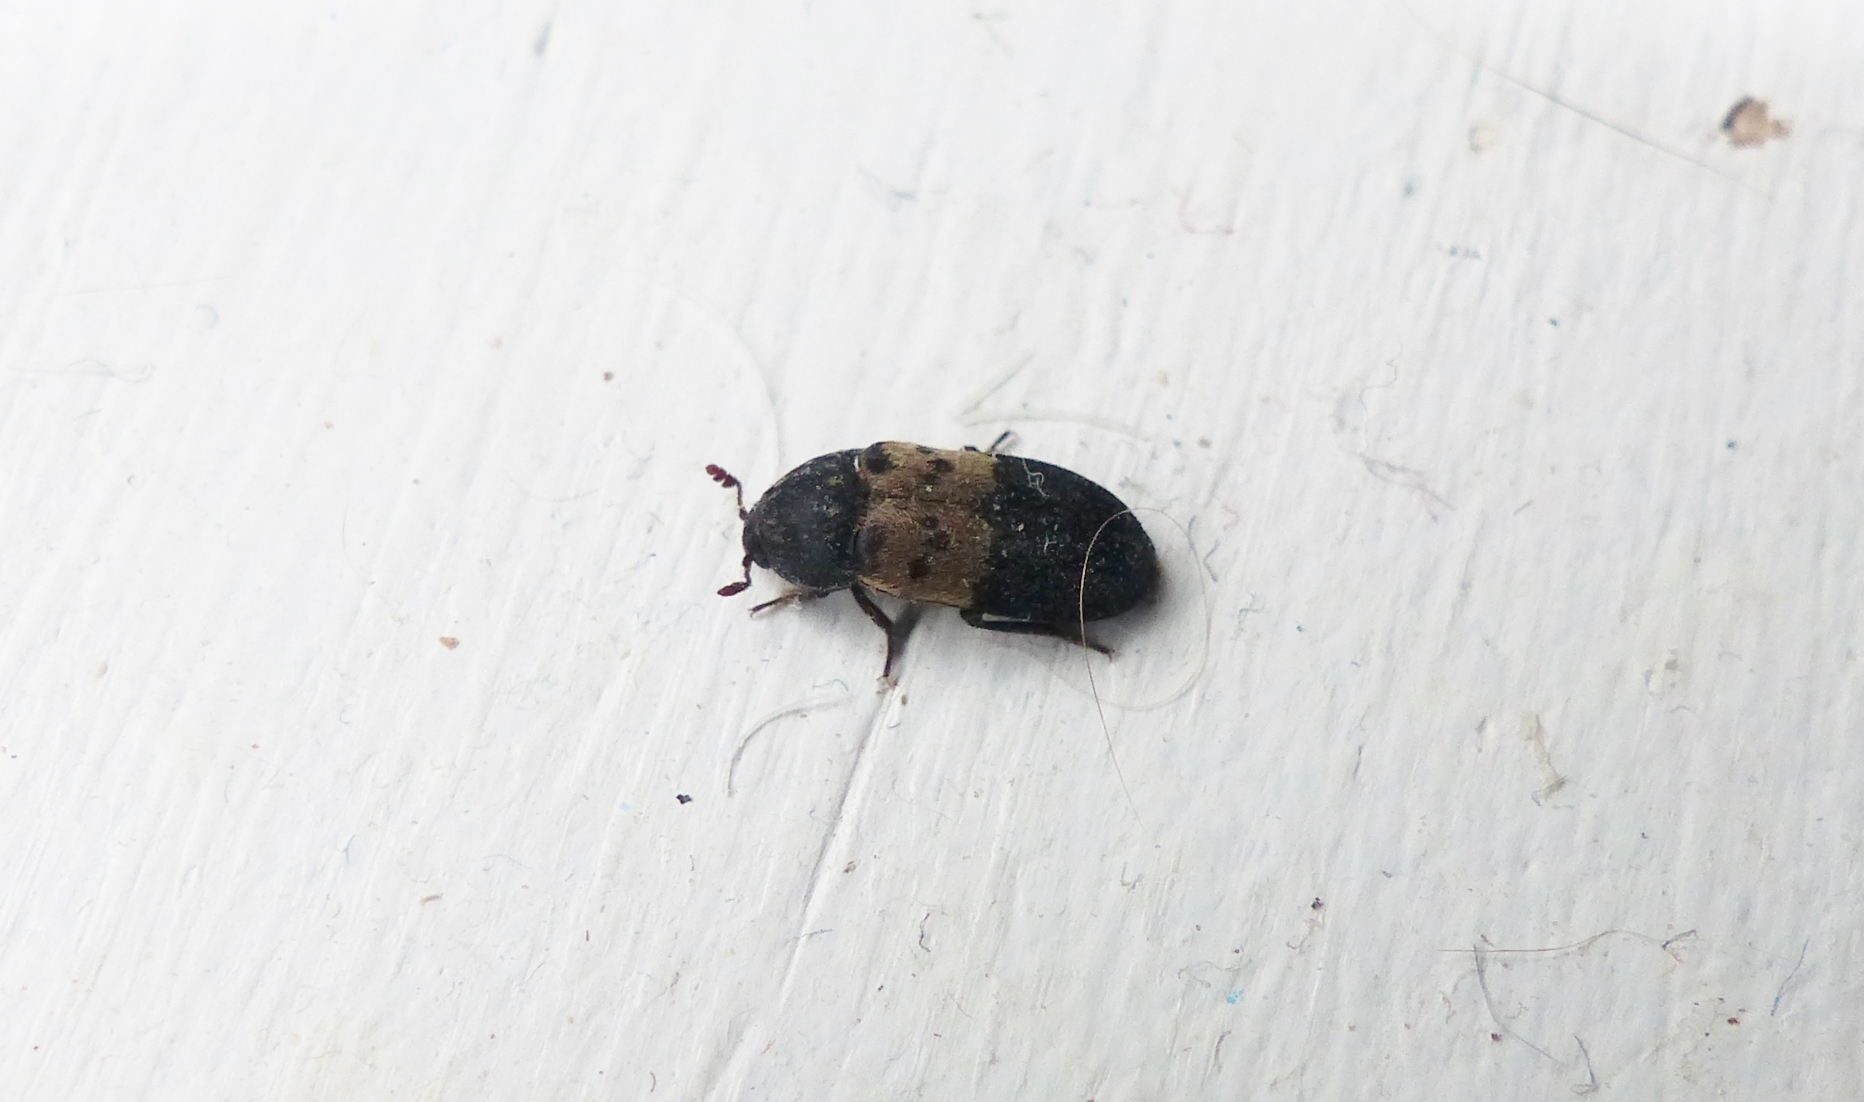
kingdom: Animalia
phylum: Arthropoda
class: Insecta
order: Coleoptera
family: Dermestidae
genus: Dermestes
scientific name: Dermestes lardarius
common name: Larder beetle
